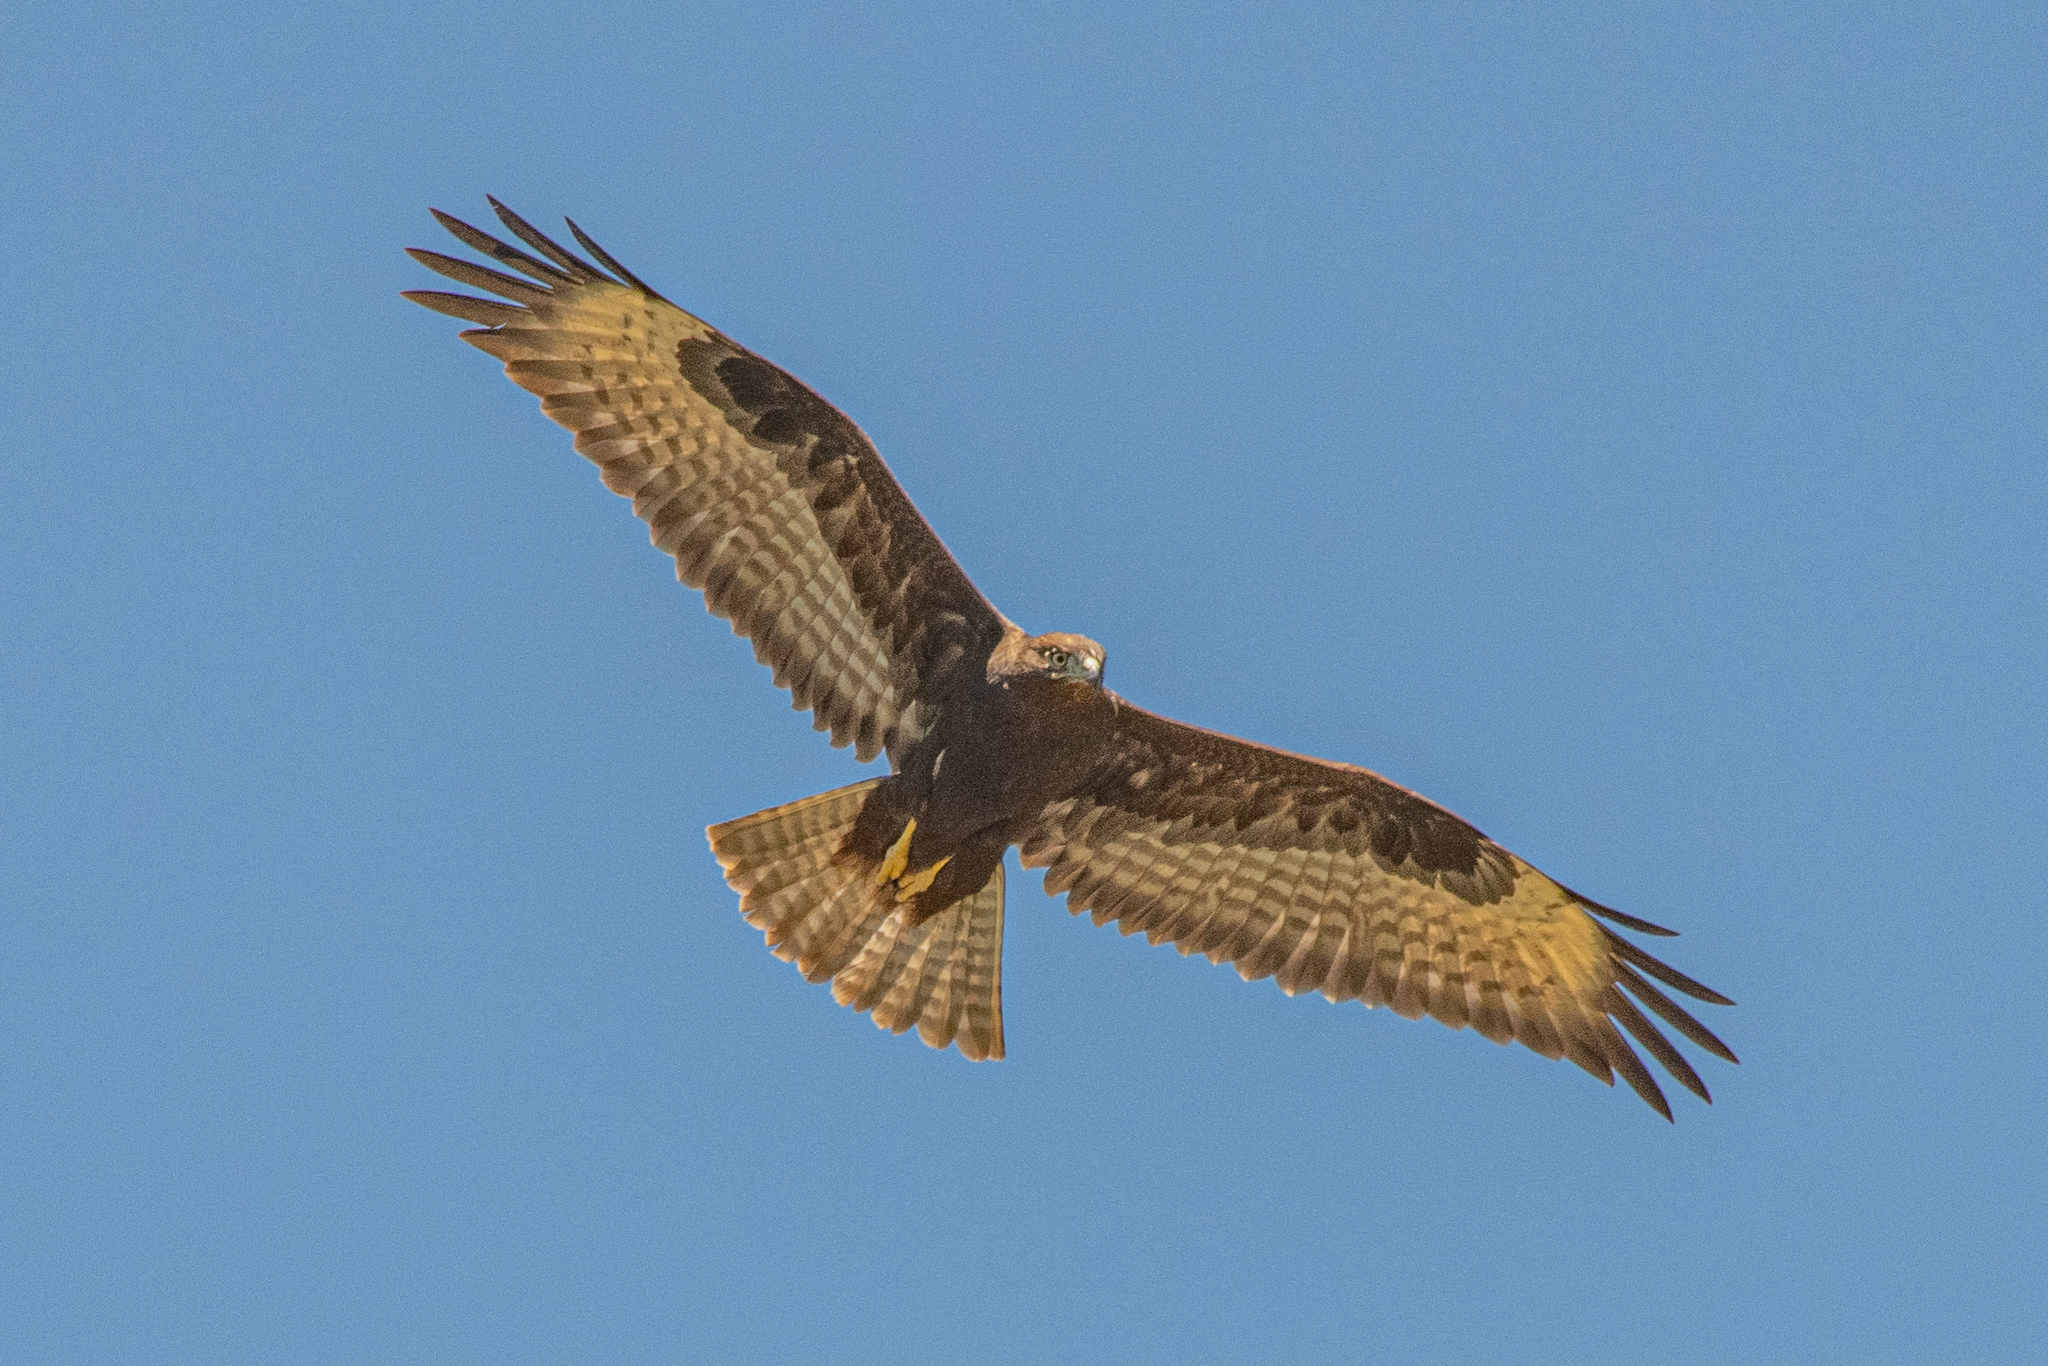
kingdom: Animalia
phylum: Chordata
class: Aves
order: Accipitriformes
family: Accipitridae
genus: Buteo
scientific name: Buteo rufinus
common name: Long-legged buzzard
